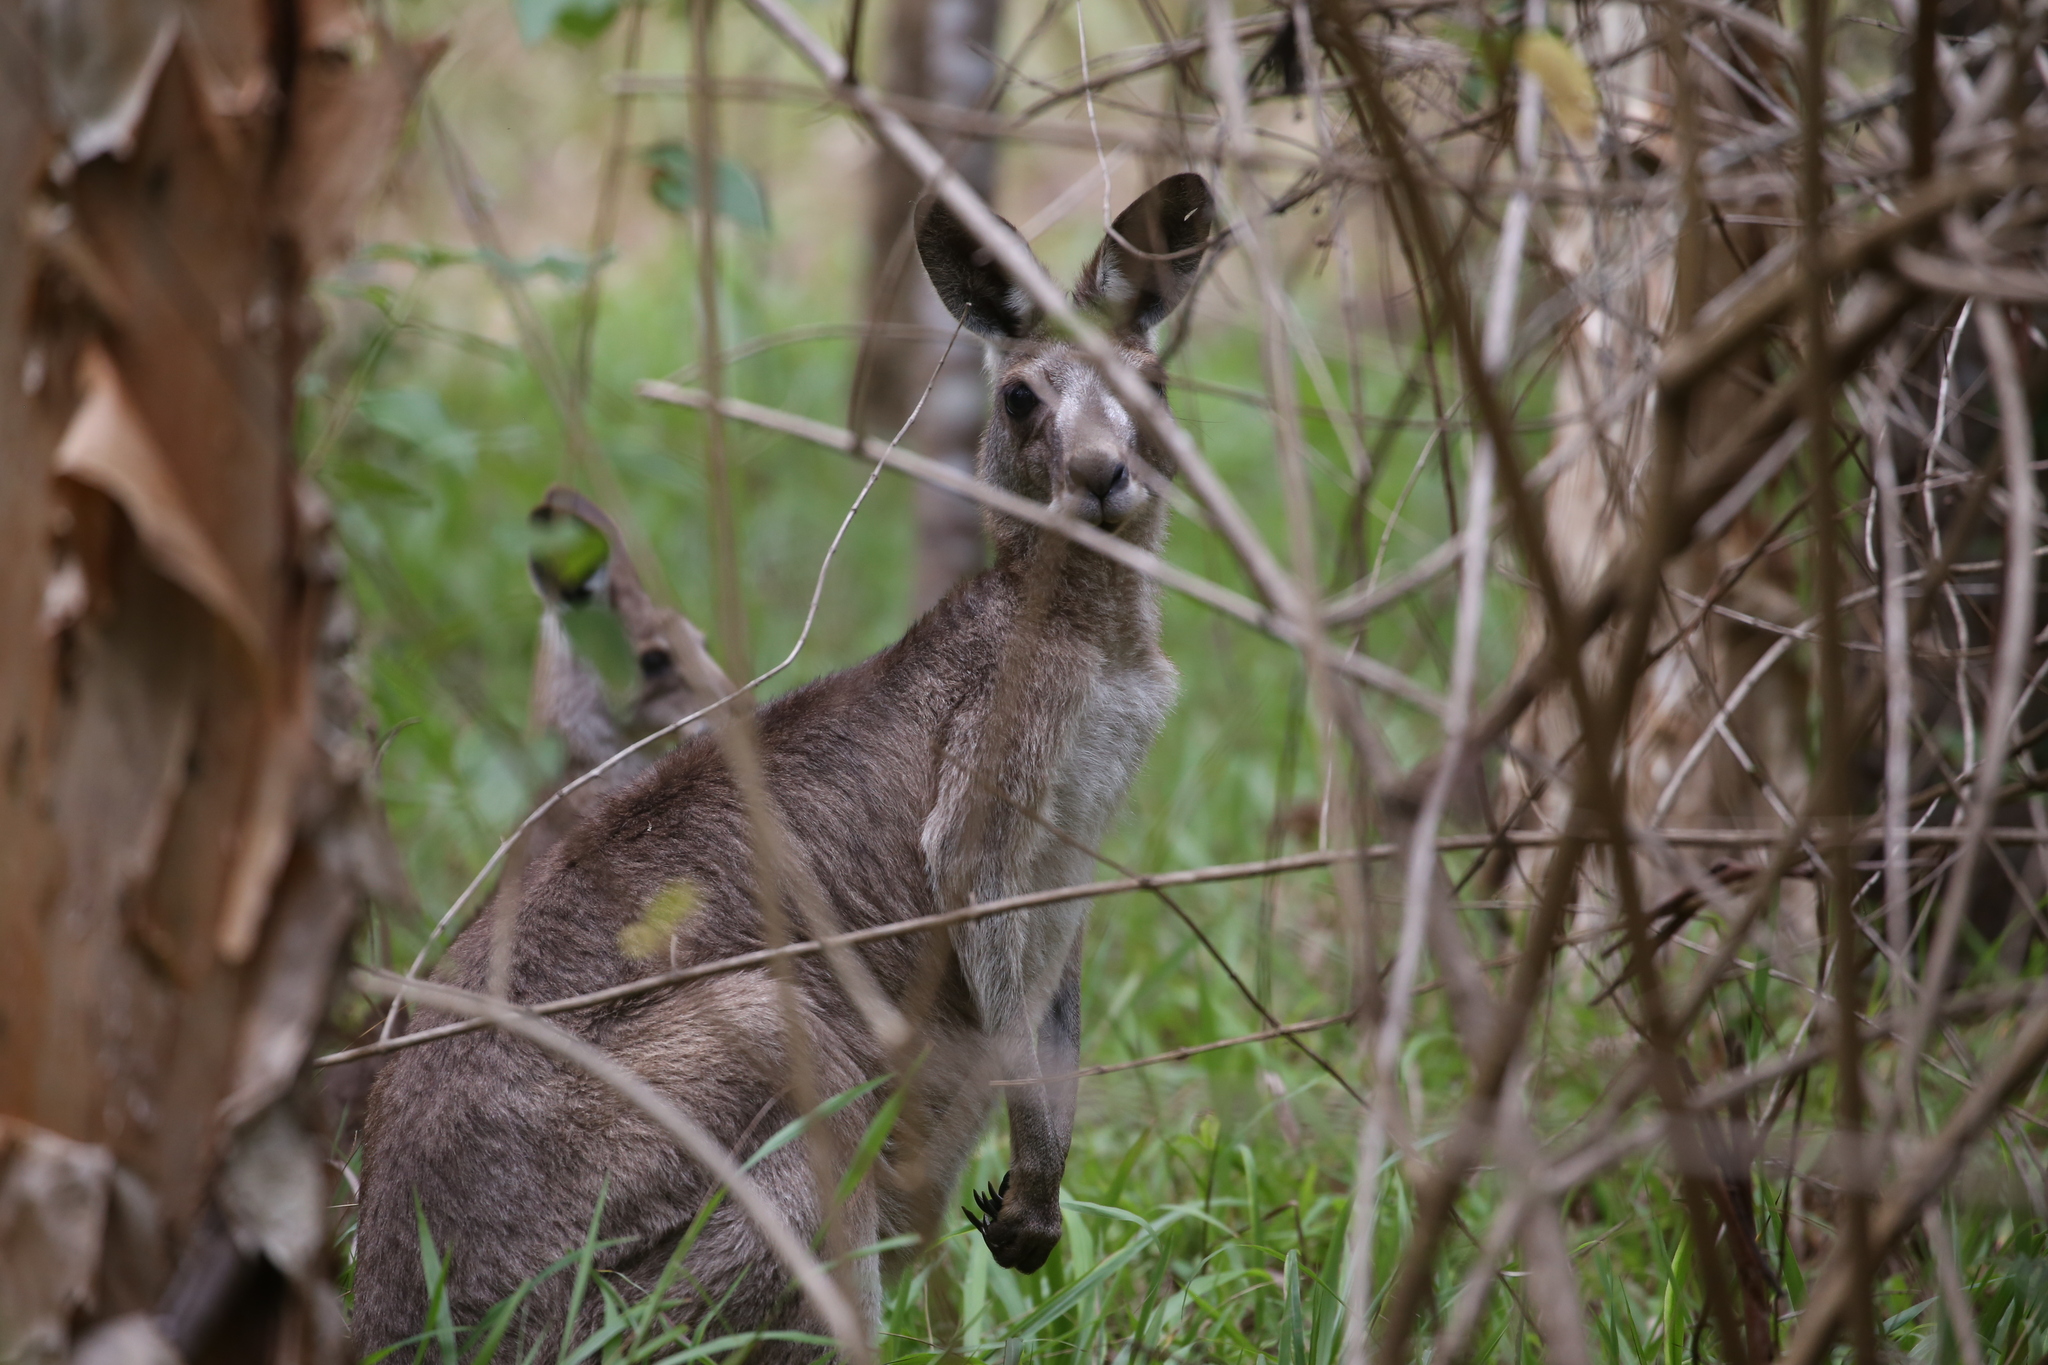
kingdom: Animalia
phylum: Chordata
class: Mammalia
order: Diprotodontia
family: Macropodidae
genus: Macropus
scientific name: Macropus giganteus
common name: Eastern grey kangaroo
